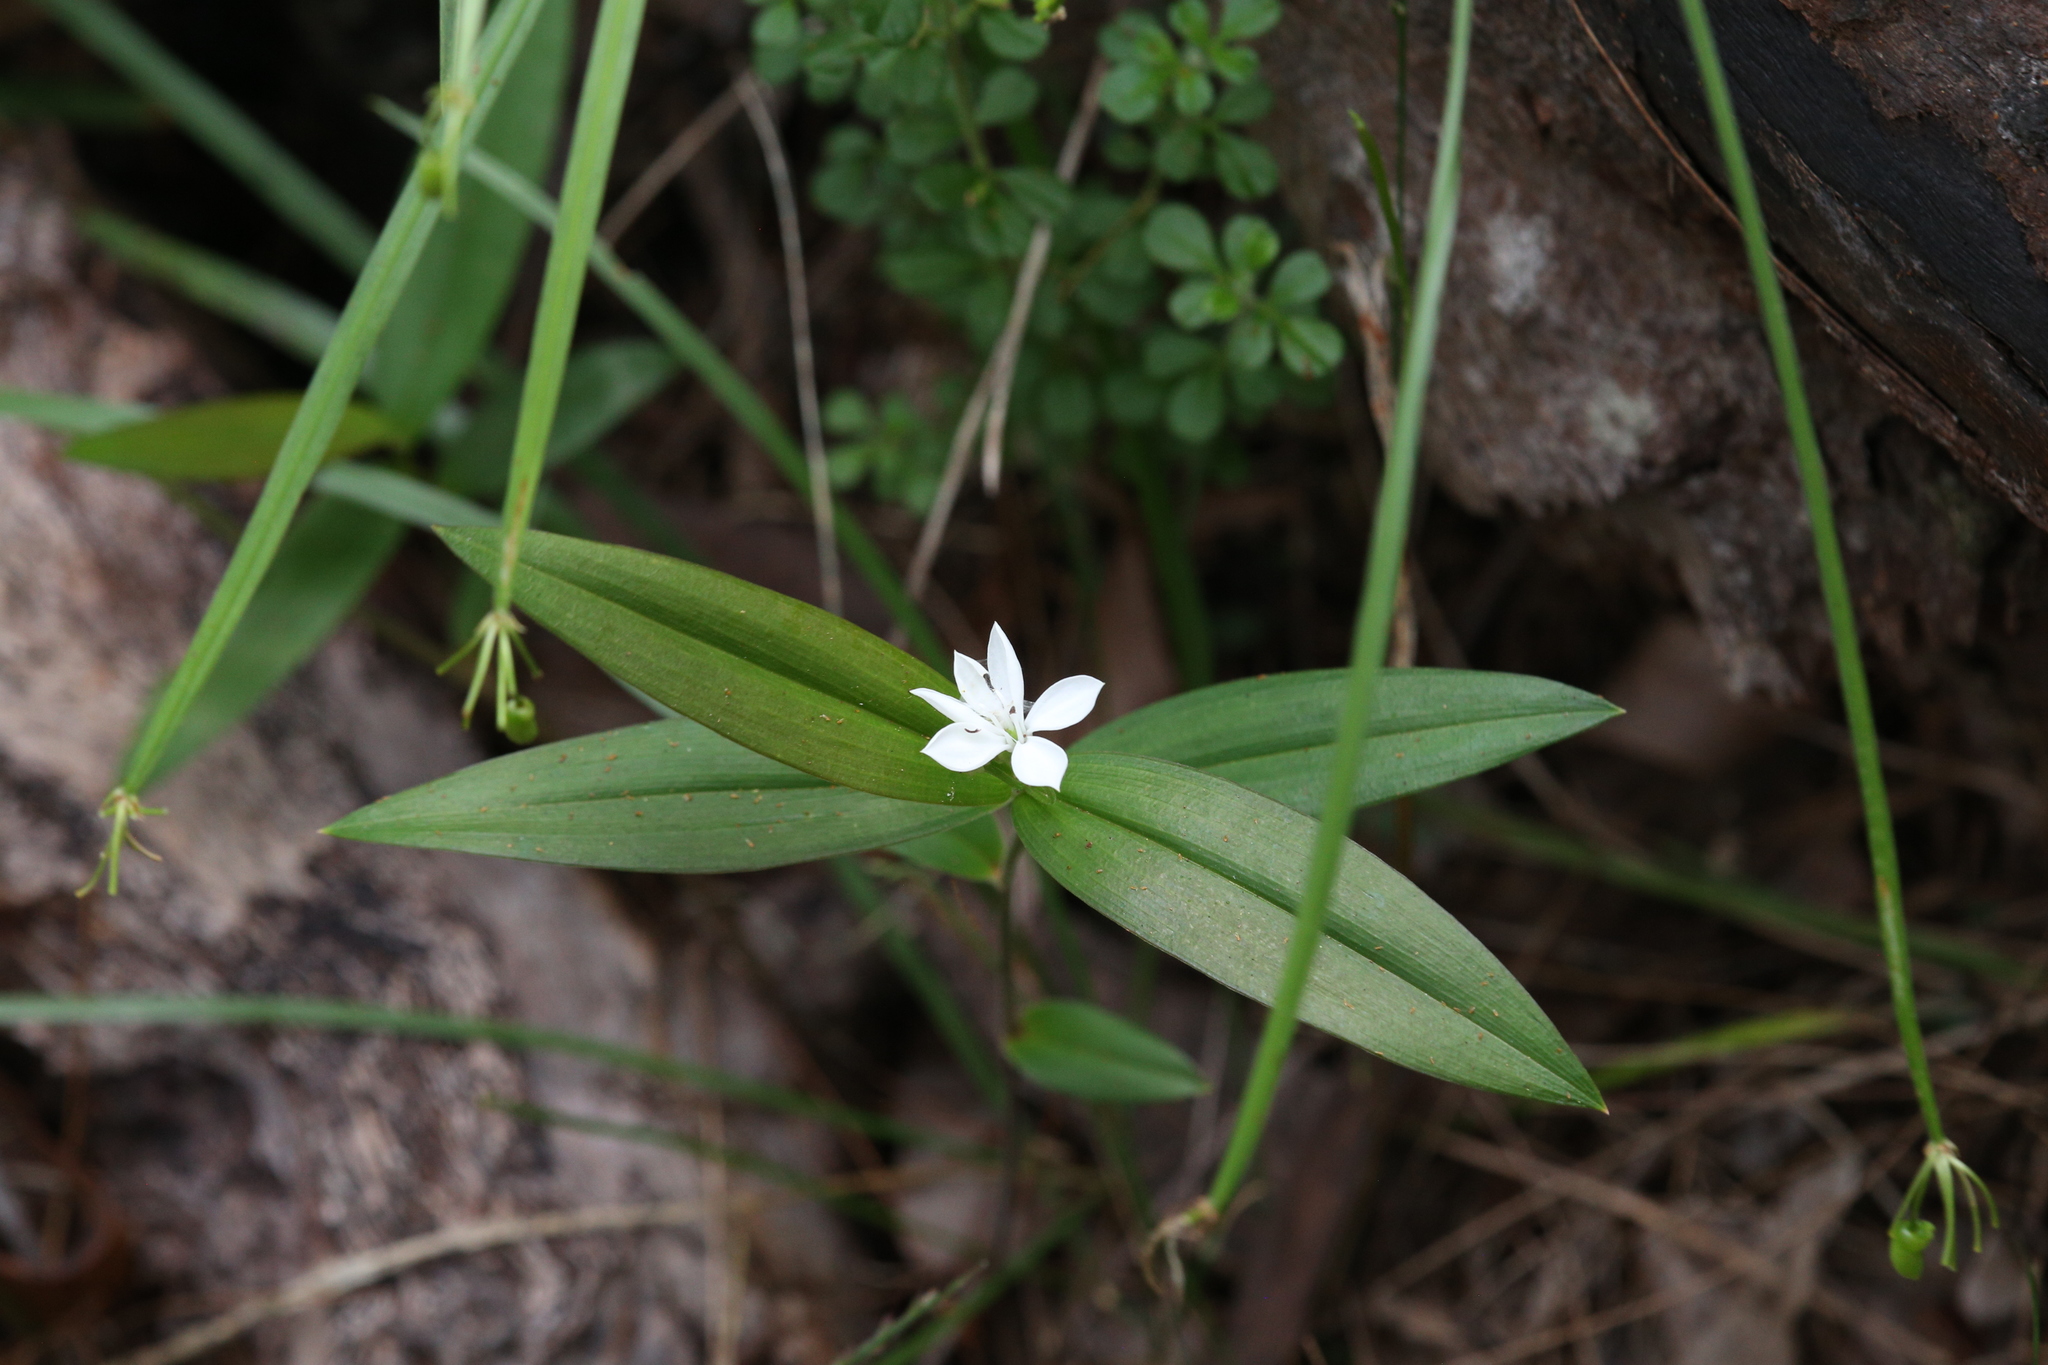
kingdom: Plantae
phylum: Tracheophyta
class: Liliopsida
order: Liliales
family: Colchicaceae
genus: Schelhammera
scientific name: Schelhammera multiflora
